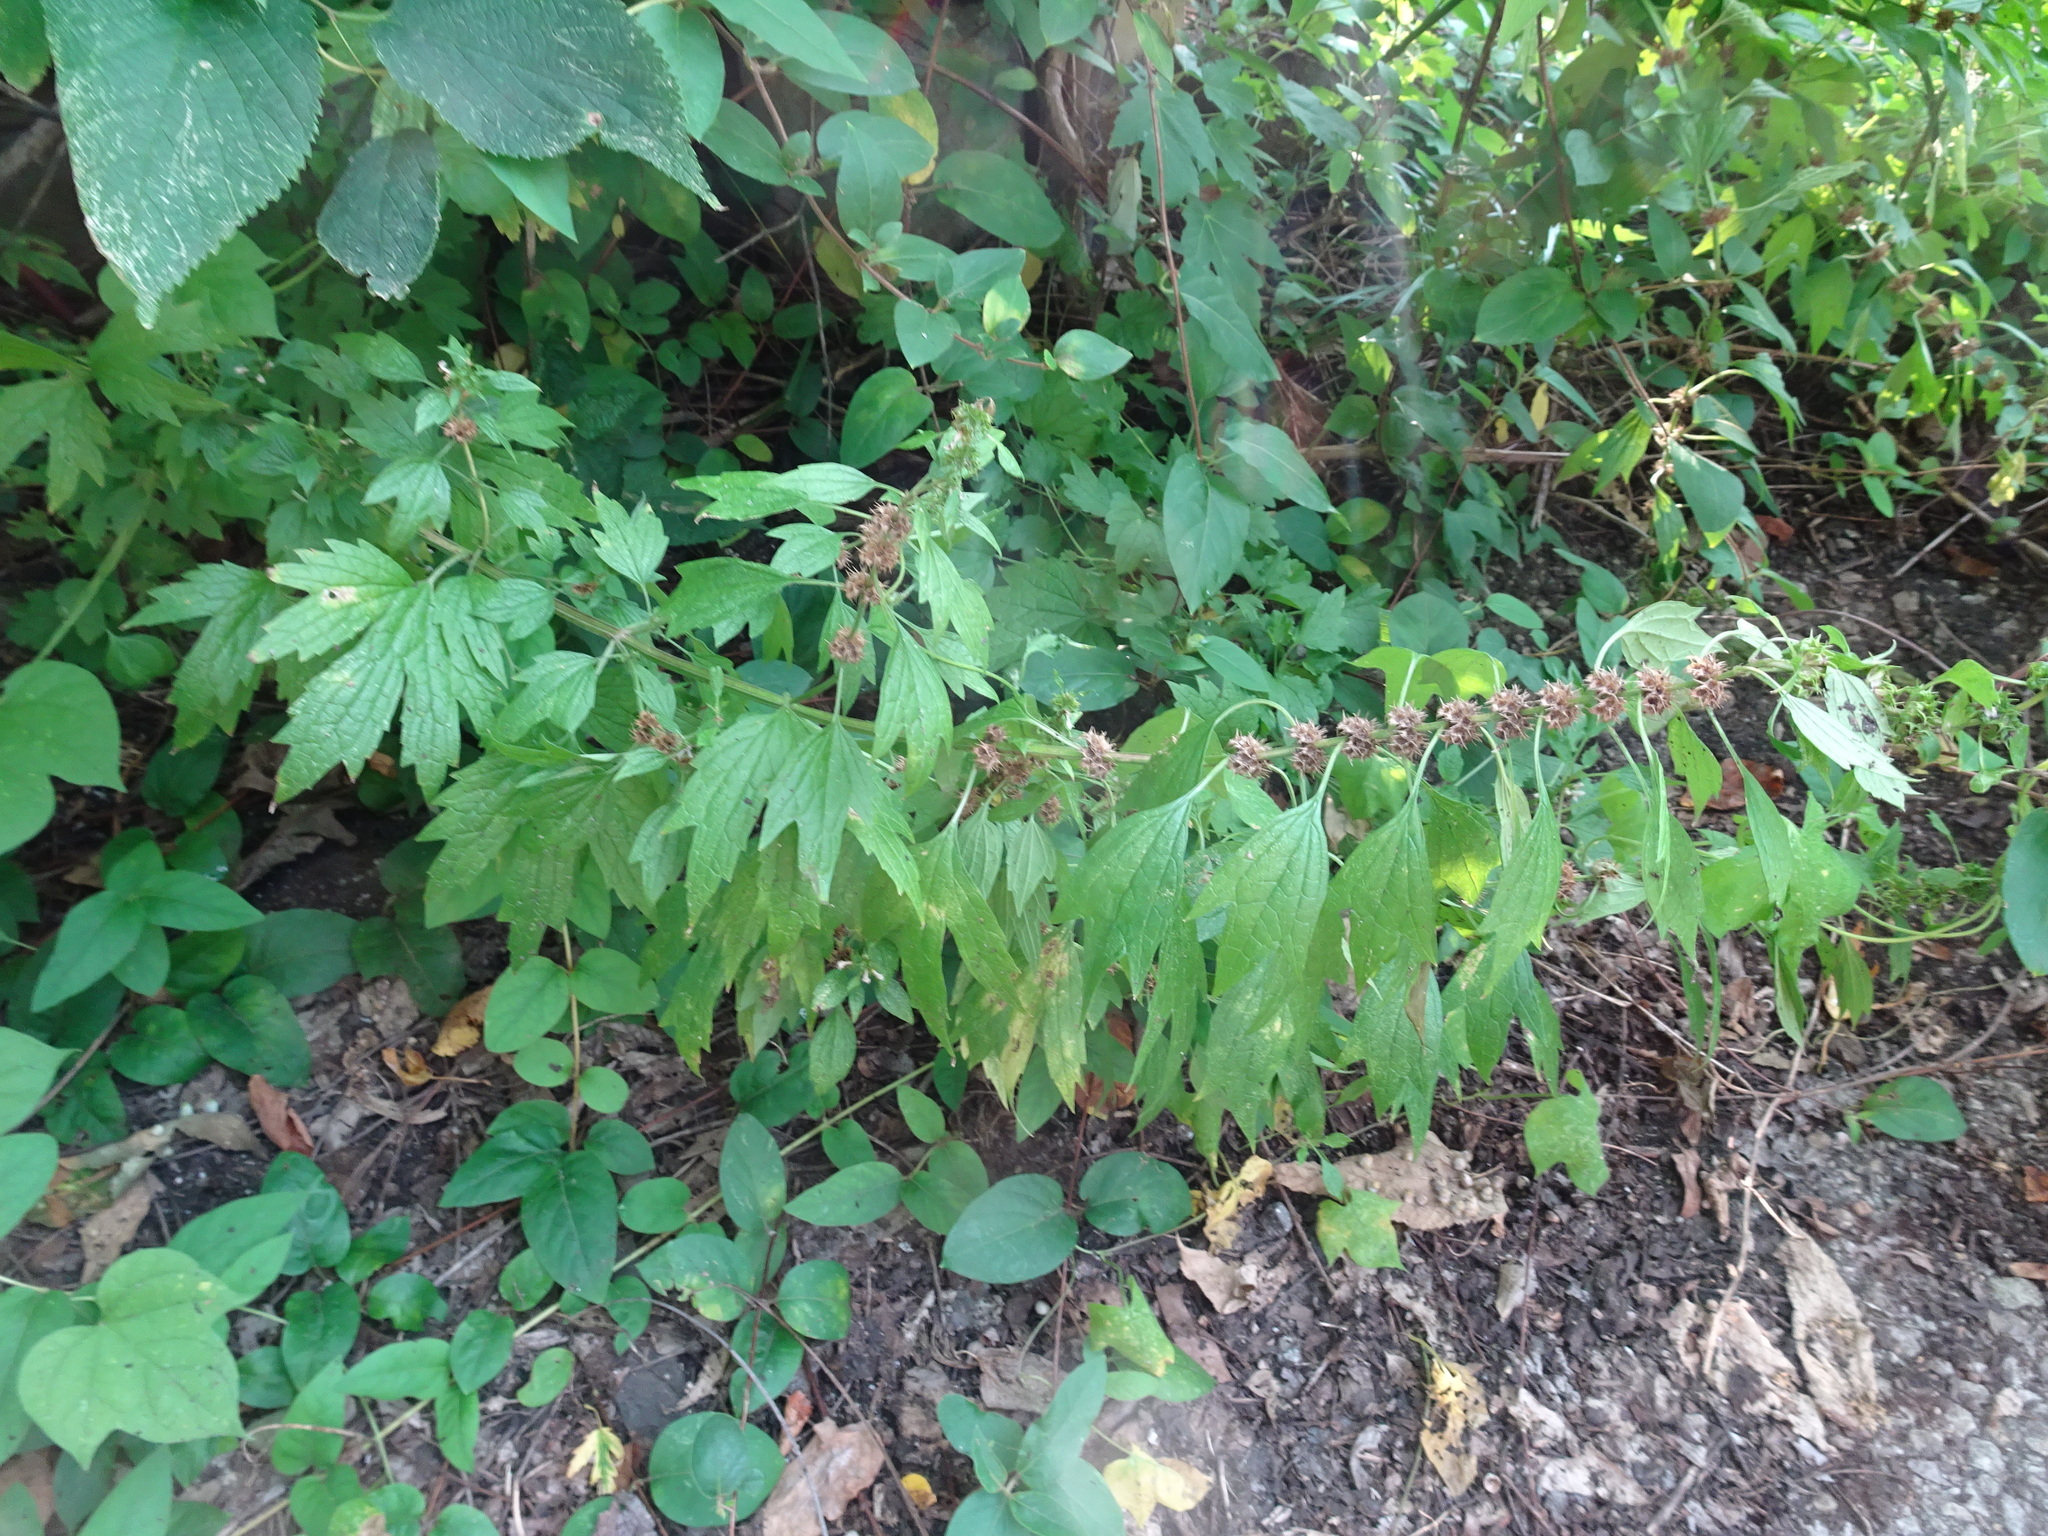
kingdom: Plantae
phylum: Tracheophyta
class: Magnoliopsida
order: Lamiales
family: Lamiaceae
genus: Leonurus
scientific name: Leonurus cardiaca
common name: Motherwort
